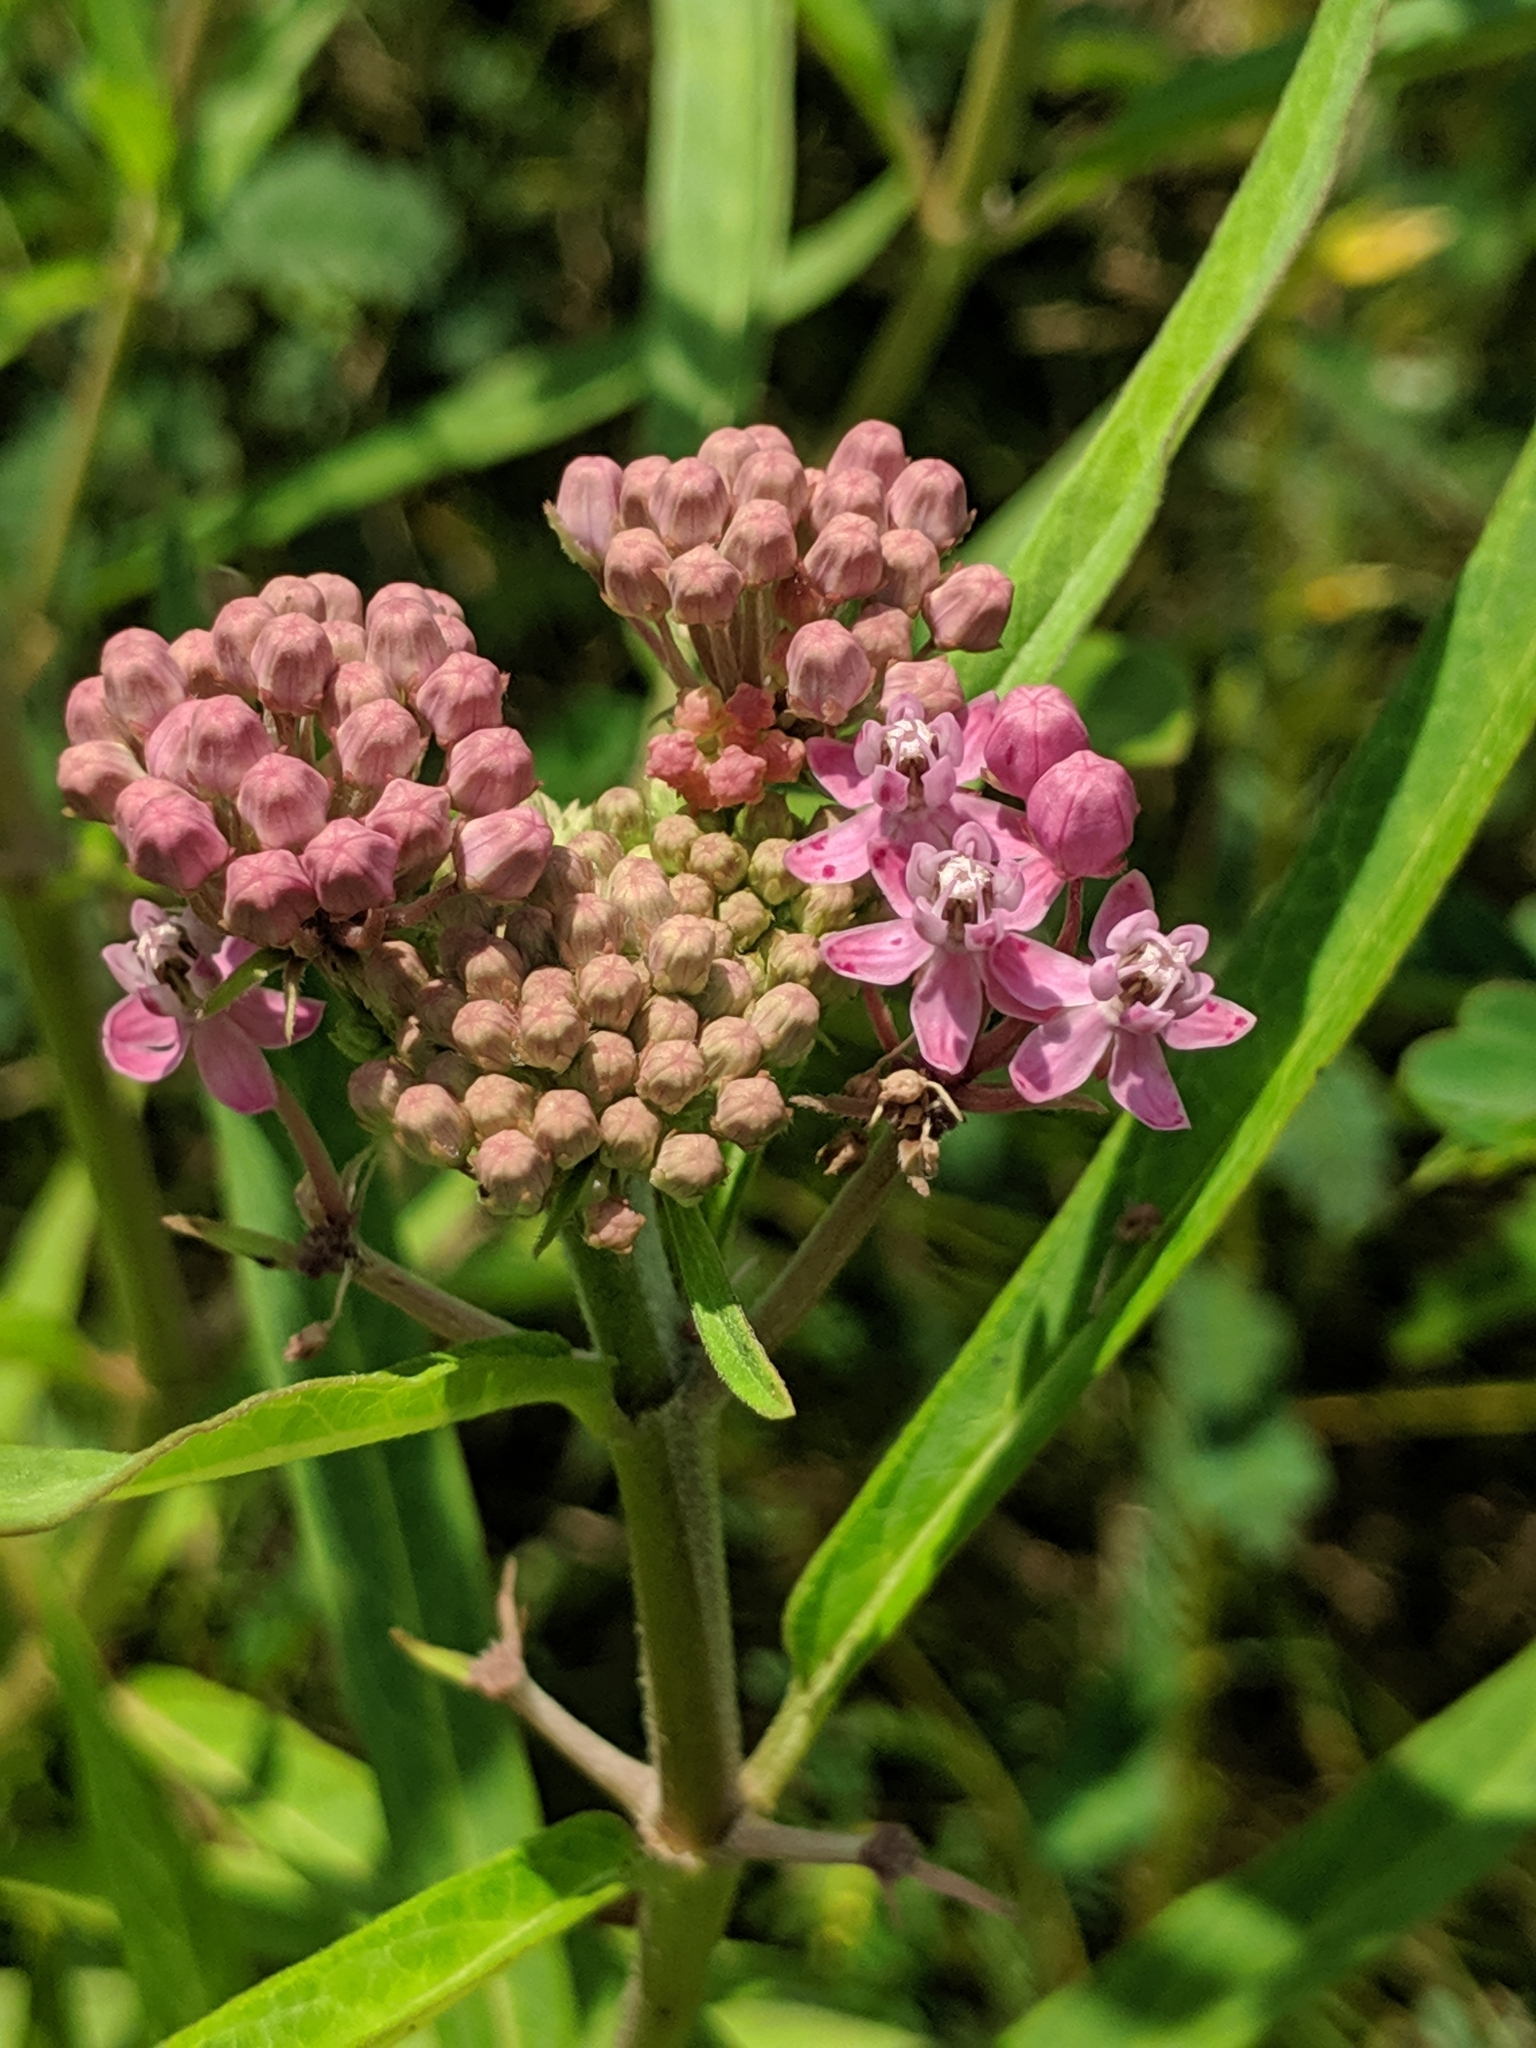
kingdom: Plantae
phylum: Tracheophyta
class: Magnoliopsida
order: Gentianales
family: Apocynaceae
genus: Asclepias
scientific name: Asclepias incarnata
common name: Swamp milkweed
